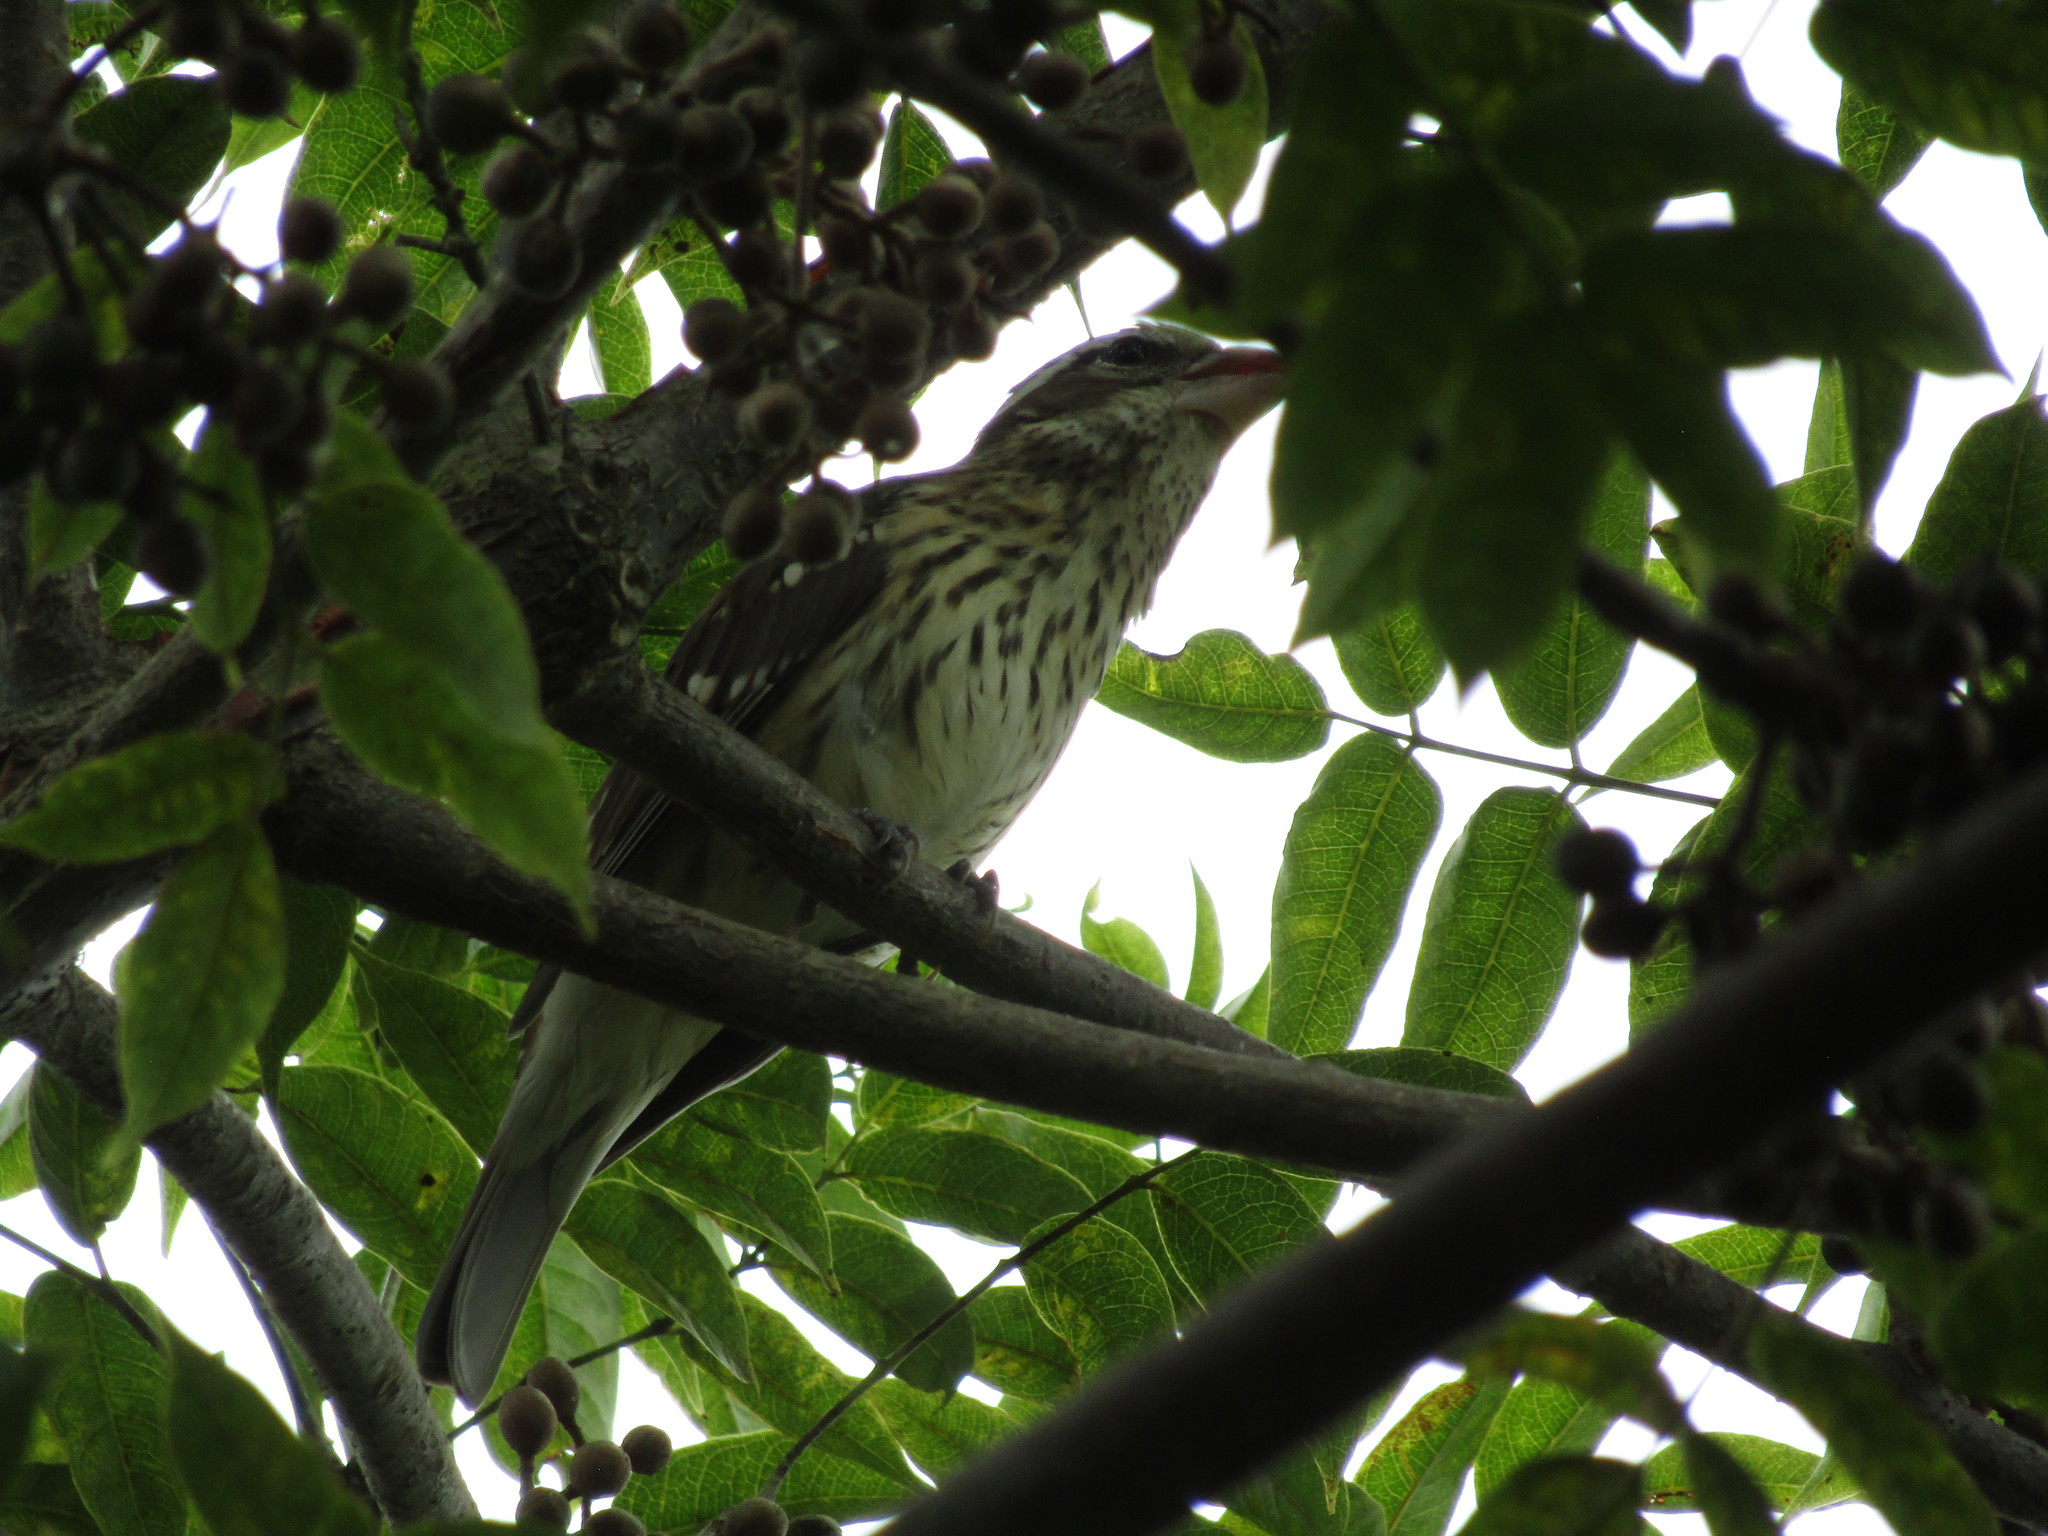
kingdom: Animalia
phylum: Chordata
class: Aves
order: Passeriformes
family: Cardinalidae
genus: Pheucticus
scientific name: Pheucticus ludovicianus
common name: Rose-breasted grosbeak
